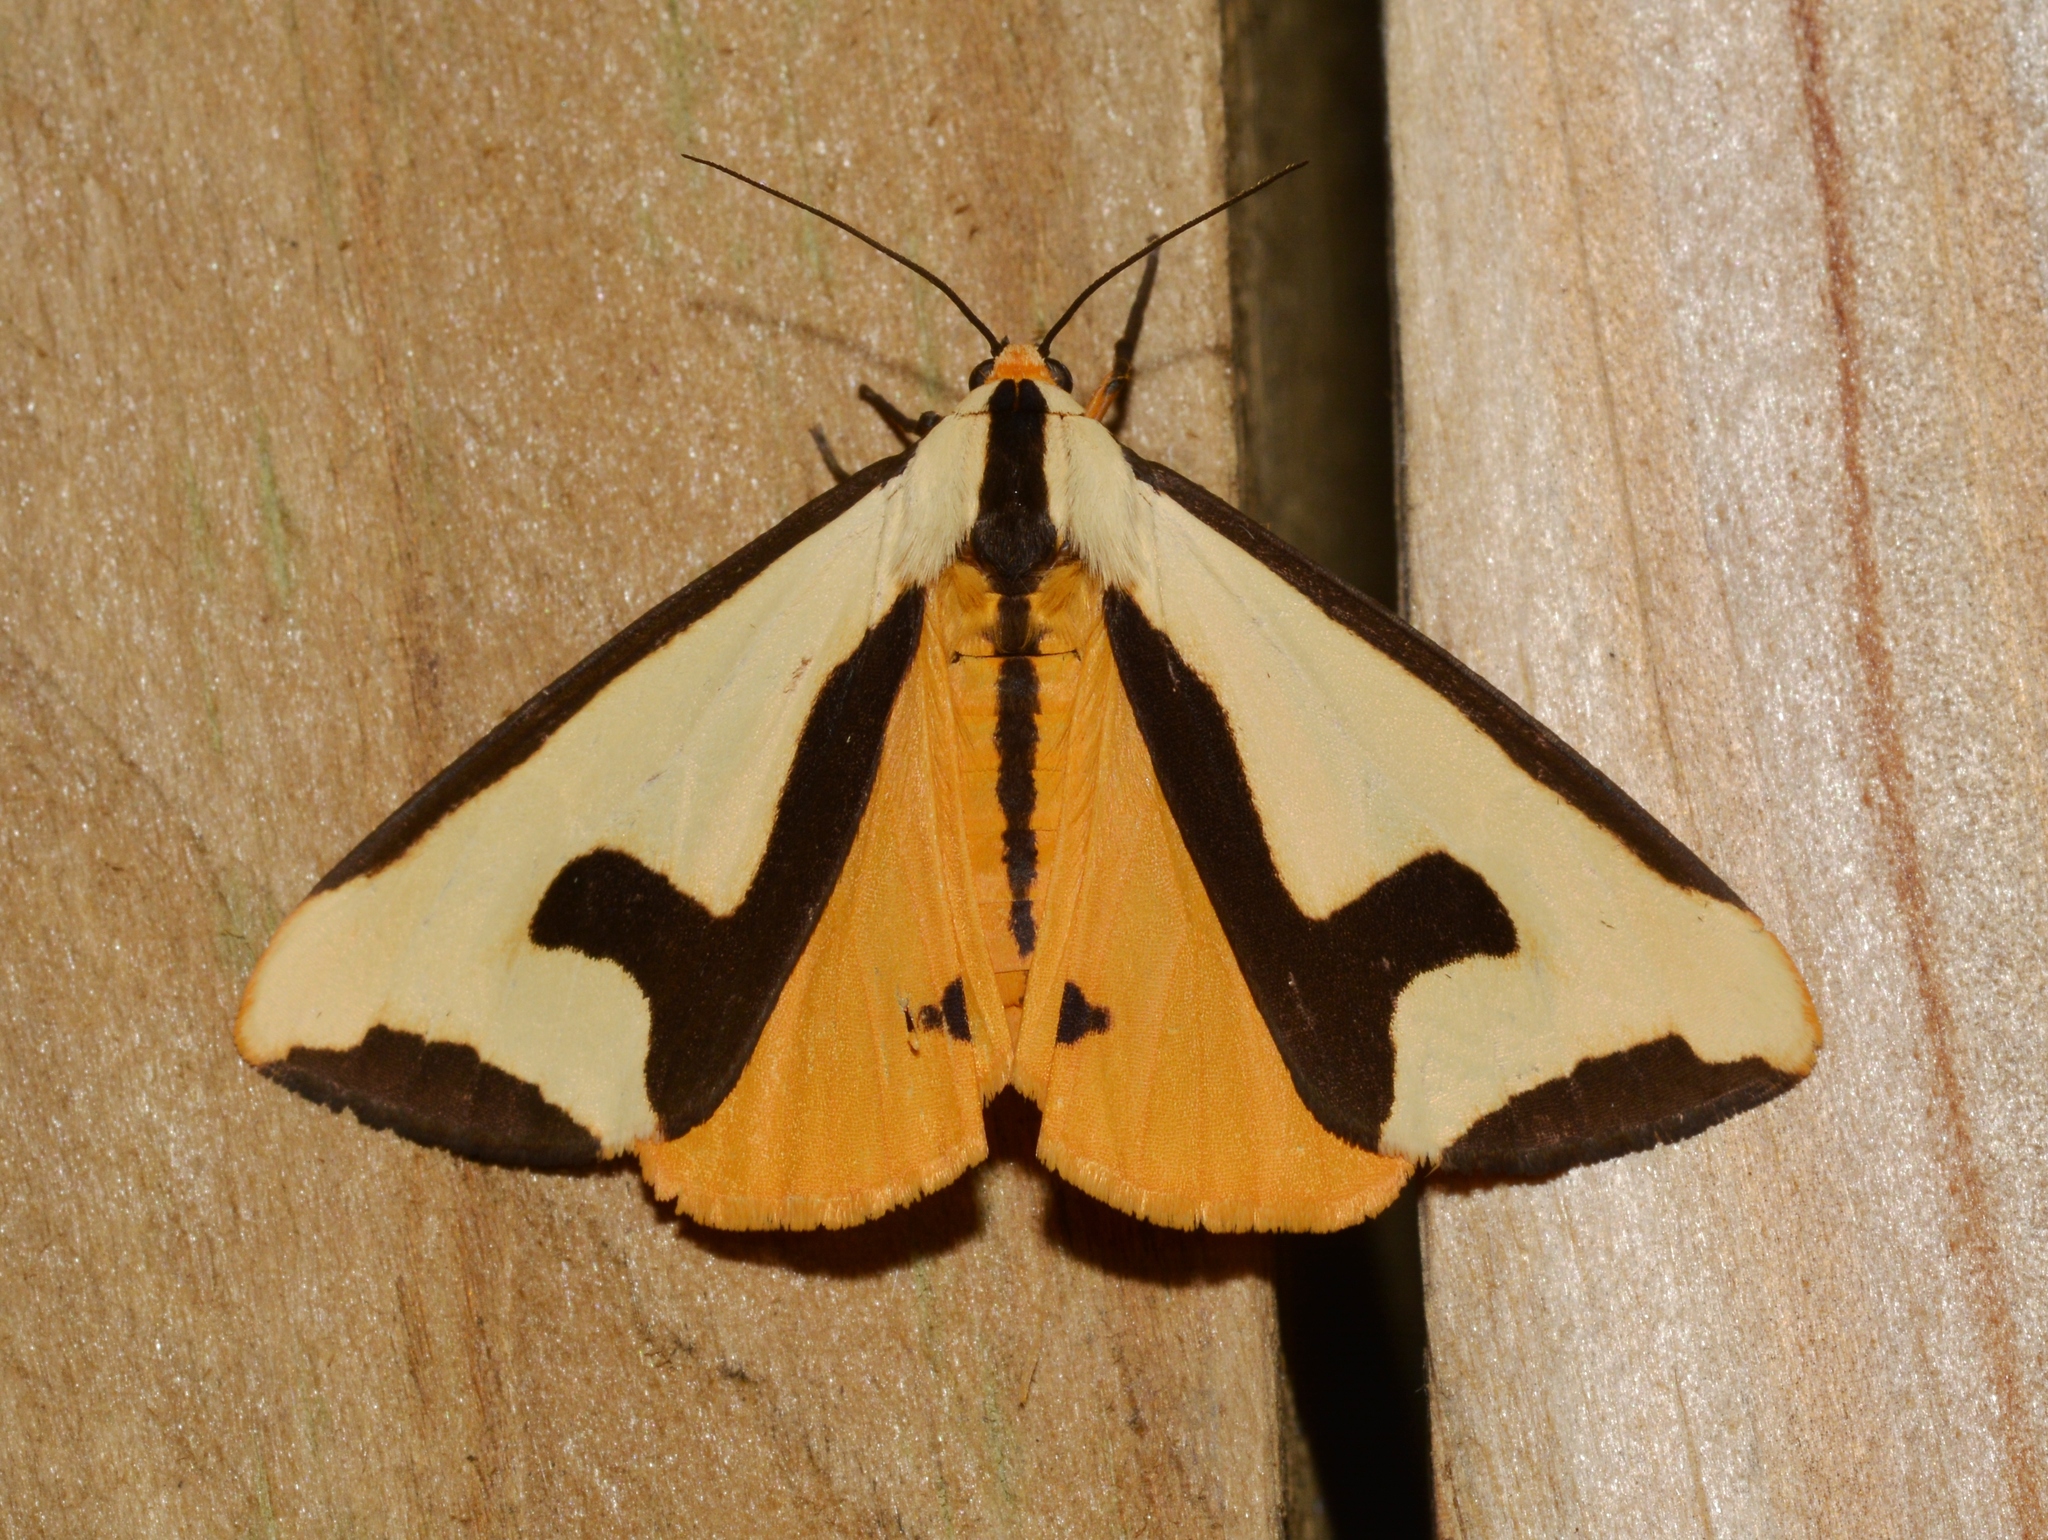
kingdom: Animalia
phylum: Arthropoda
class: Insecta
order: Lepidoptera
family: Erebidae
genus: Haploa
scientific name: Haploa clymene
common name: Clymene moth
